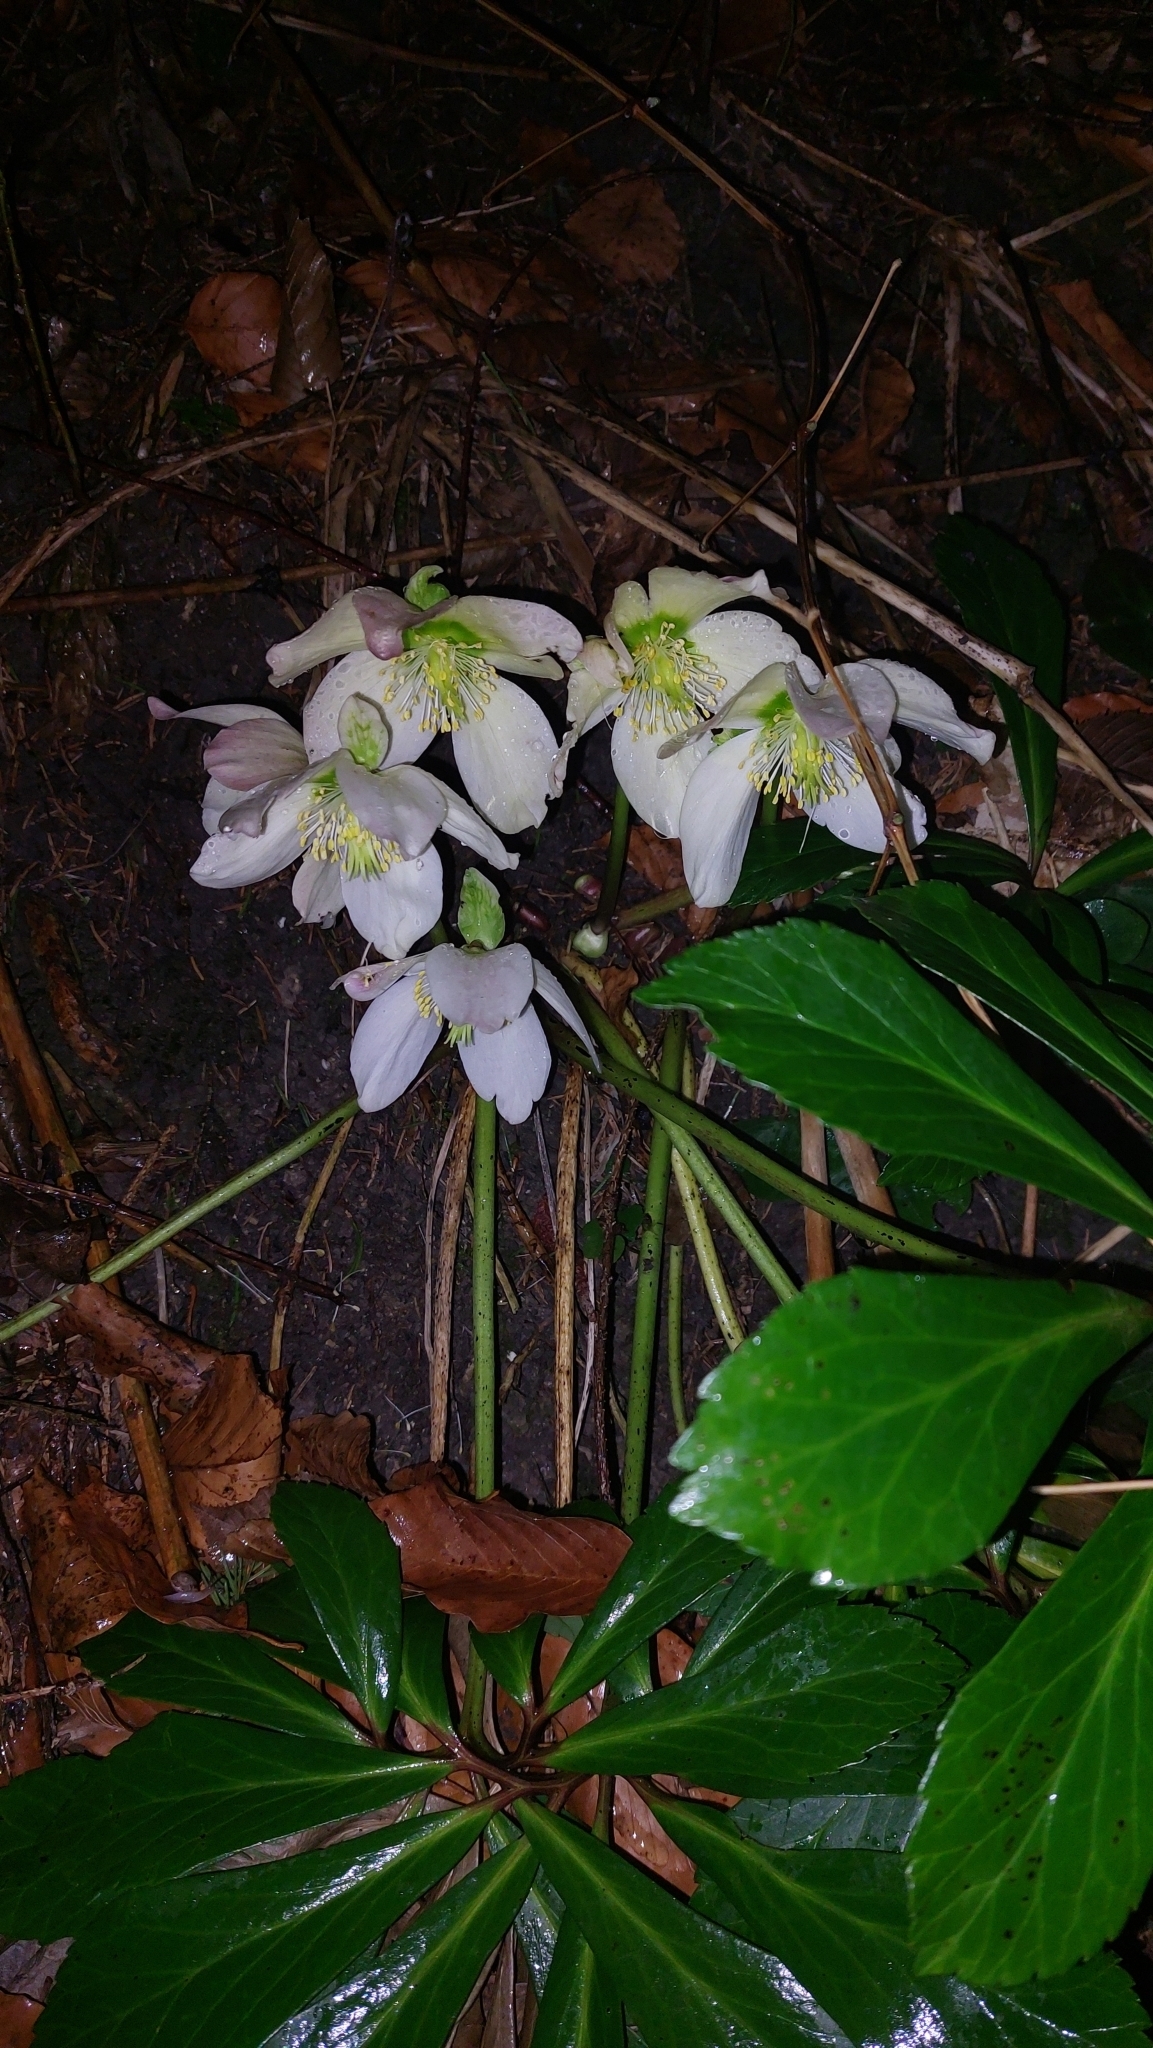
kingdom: Plantae
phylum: Tracheophyta
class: Magnoliopsida
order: Ranunculales
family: Ranunculaceae
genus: Helleborus
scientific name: Helleborus niger
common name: Black hellebore
